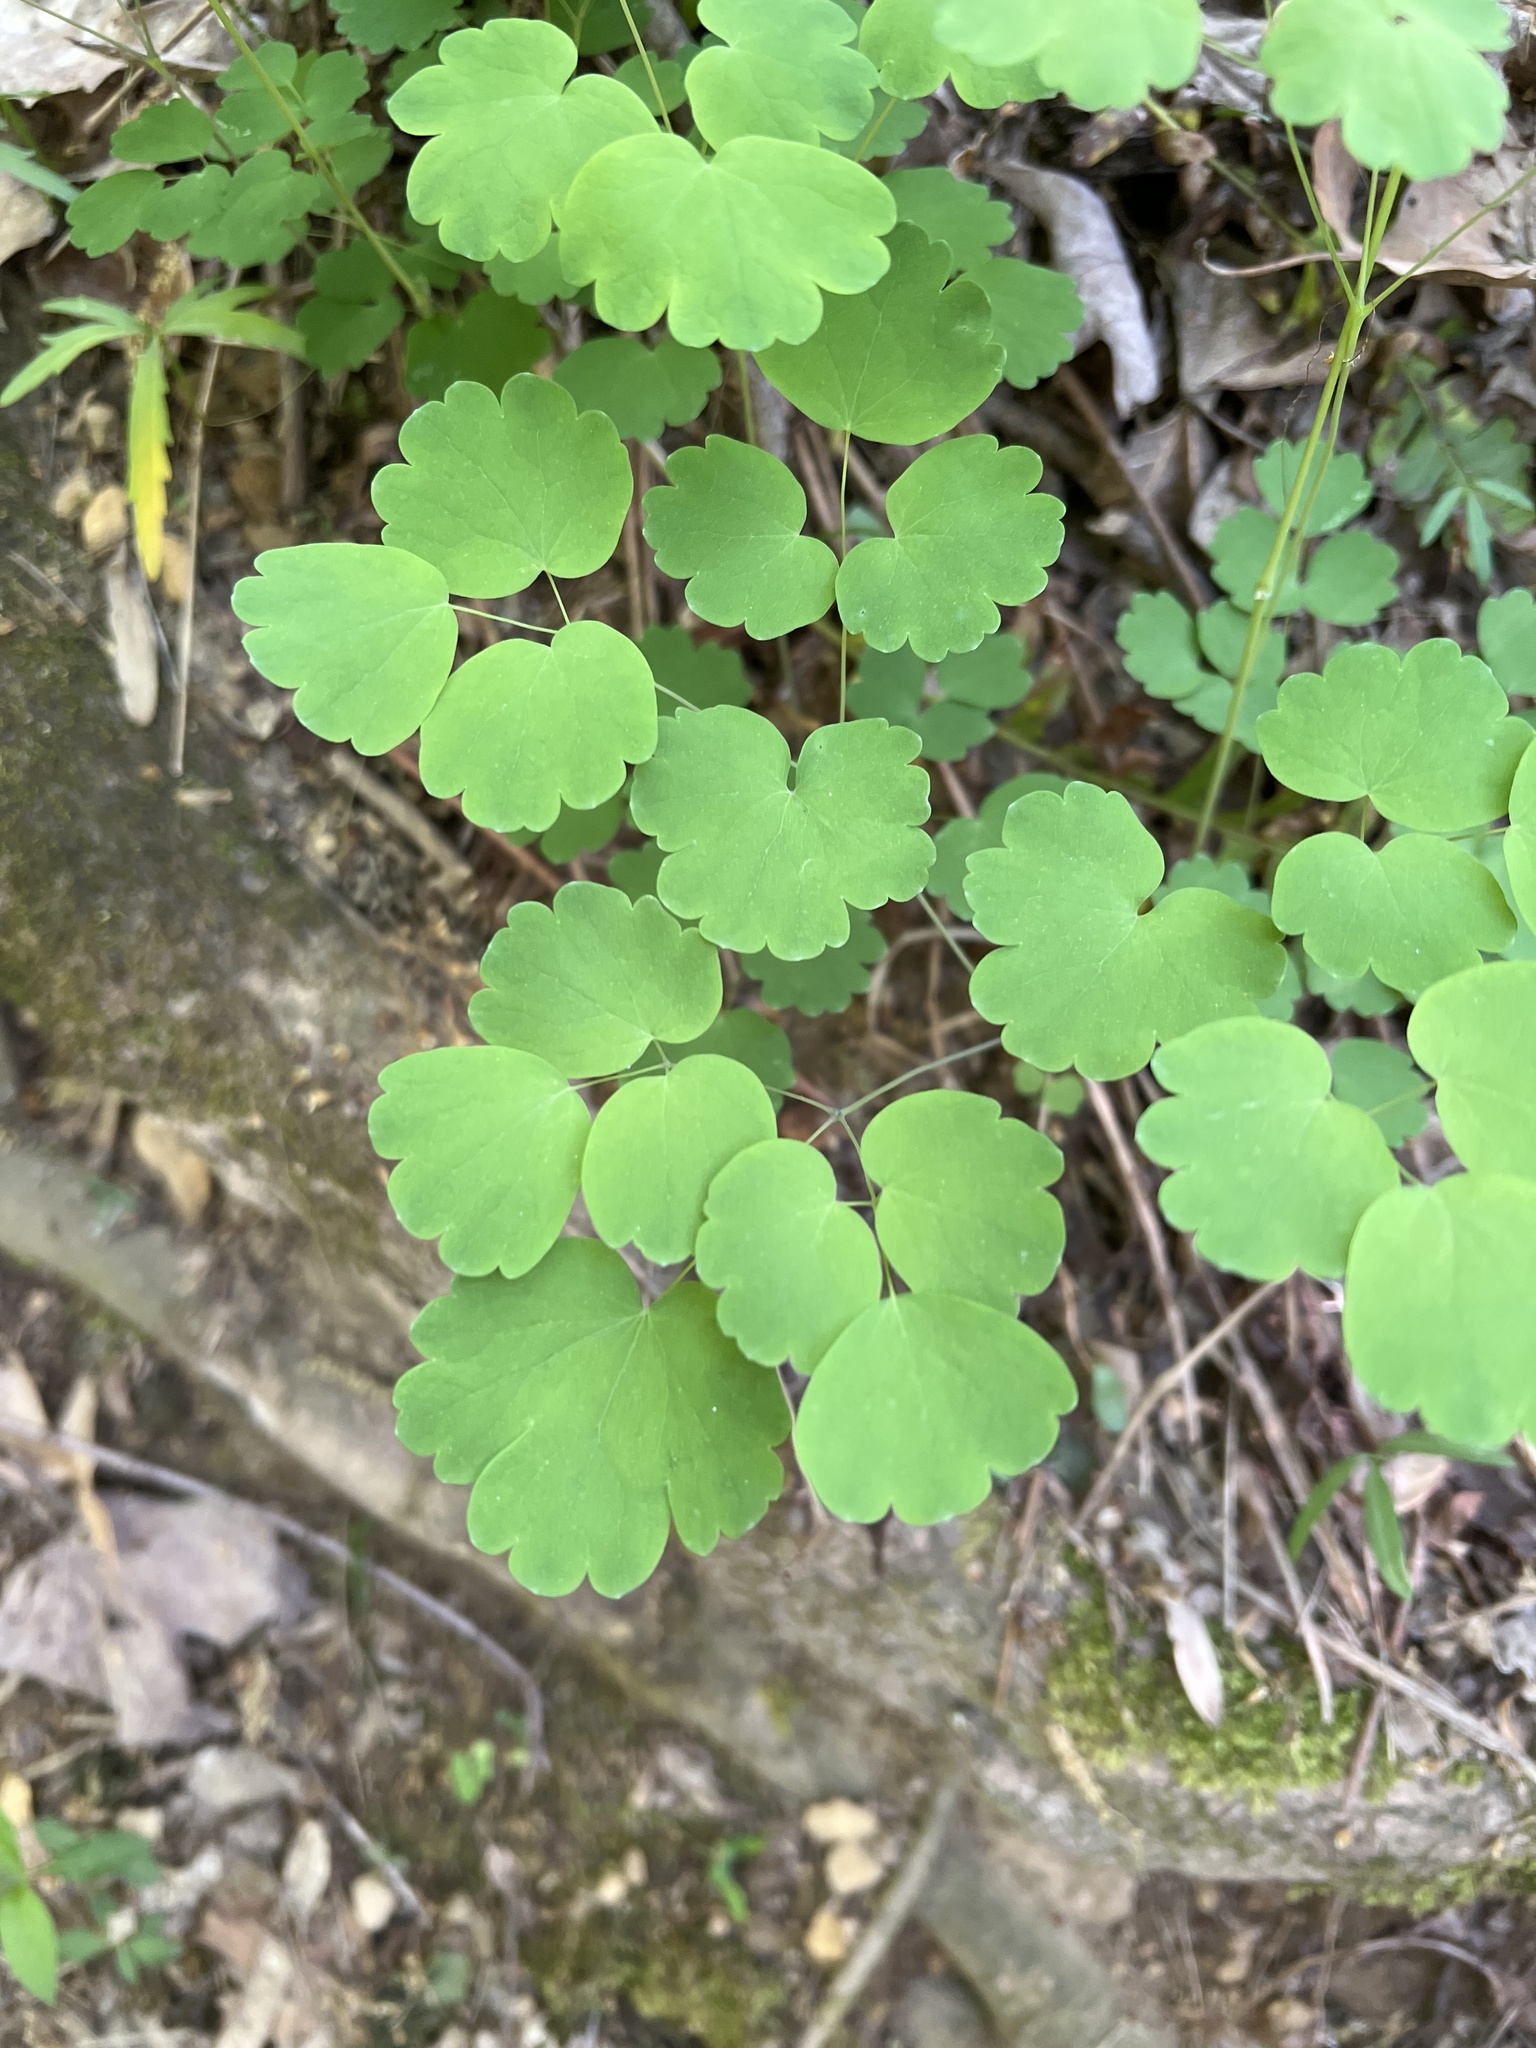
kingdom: Plantae
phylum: Tracheophyta
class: Magnoliopsida
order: Ranunculales
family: Ranunculaceae
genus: Thalictrum
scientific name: Thalictrum dioicum
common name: Early meadow-rue
